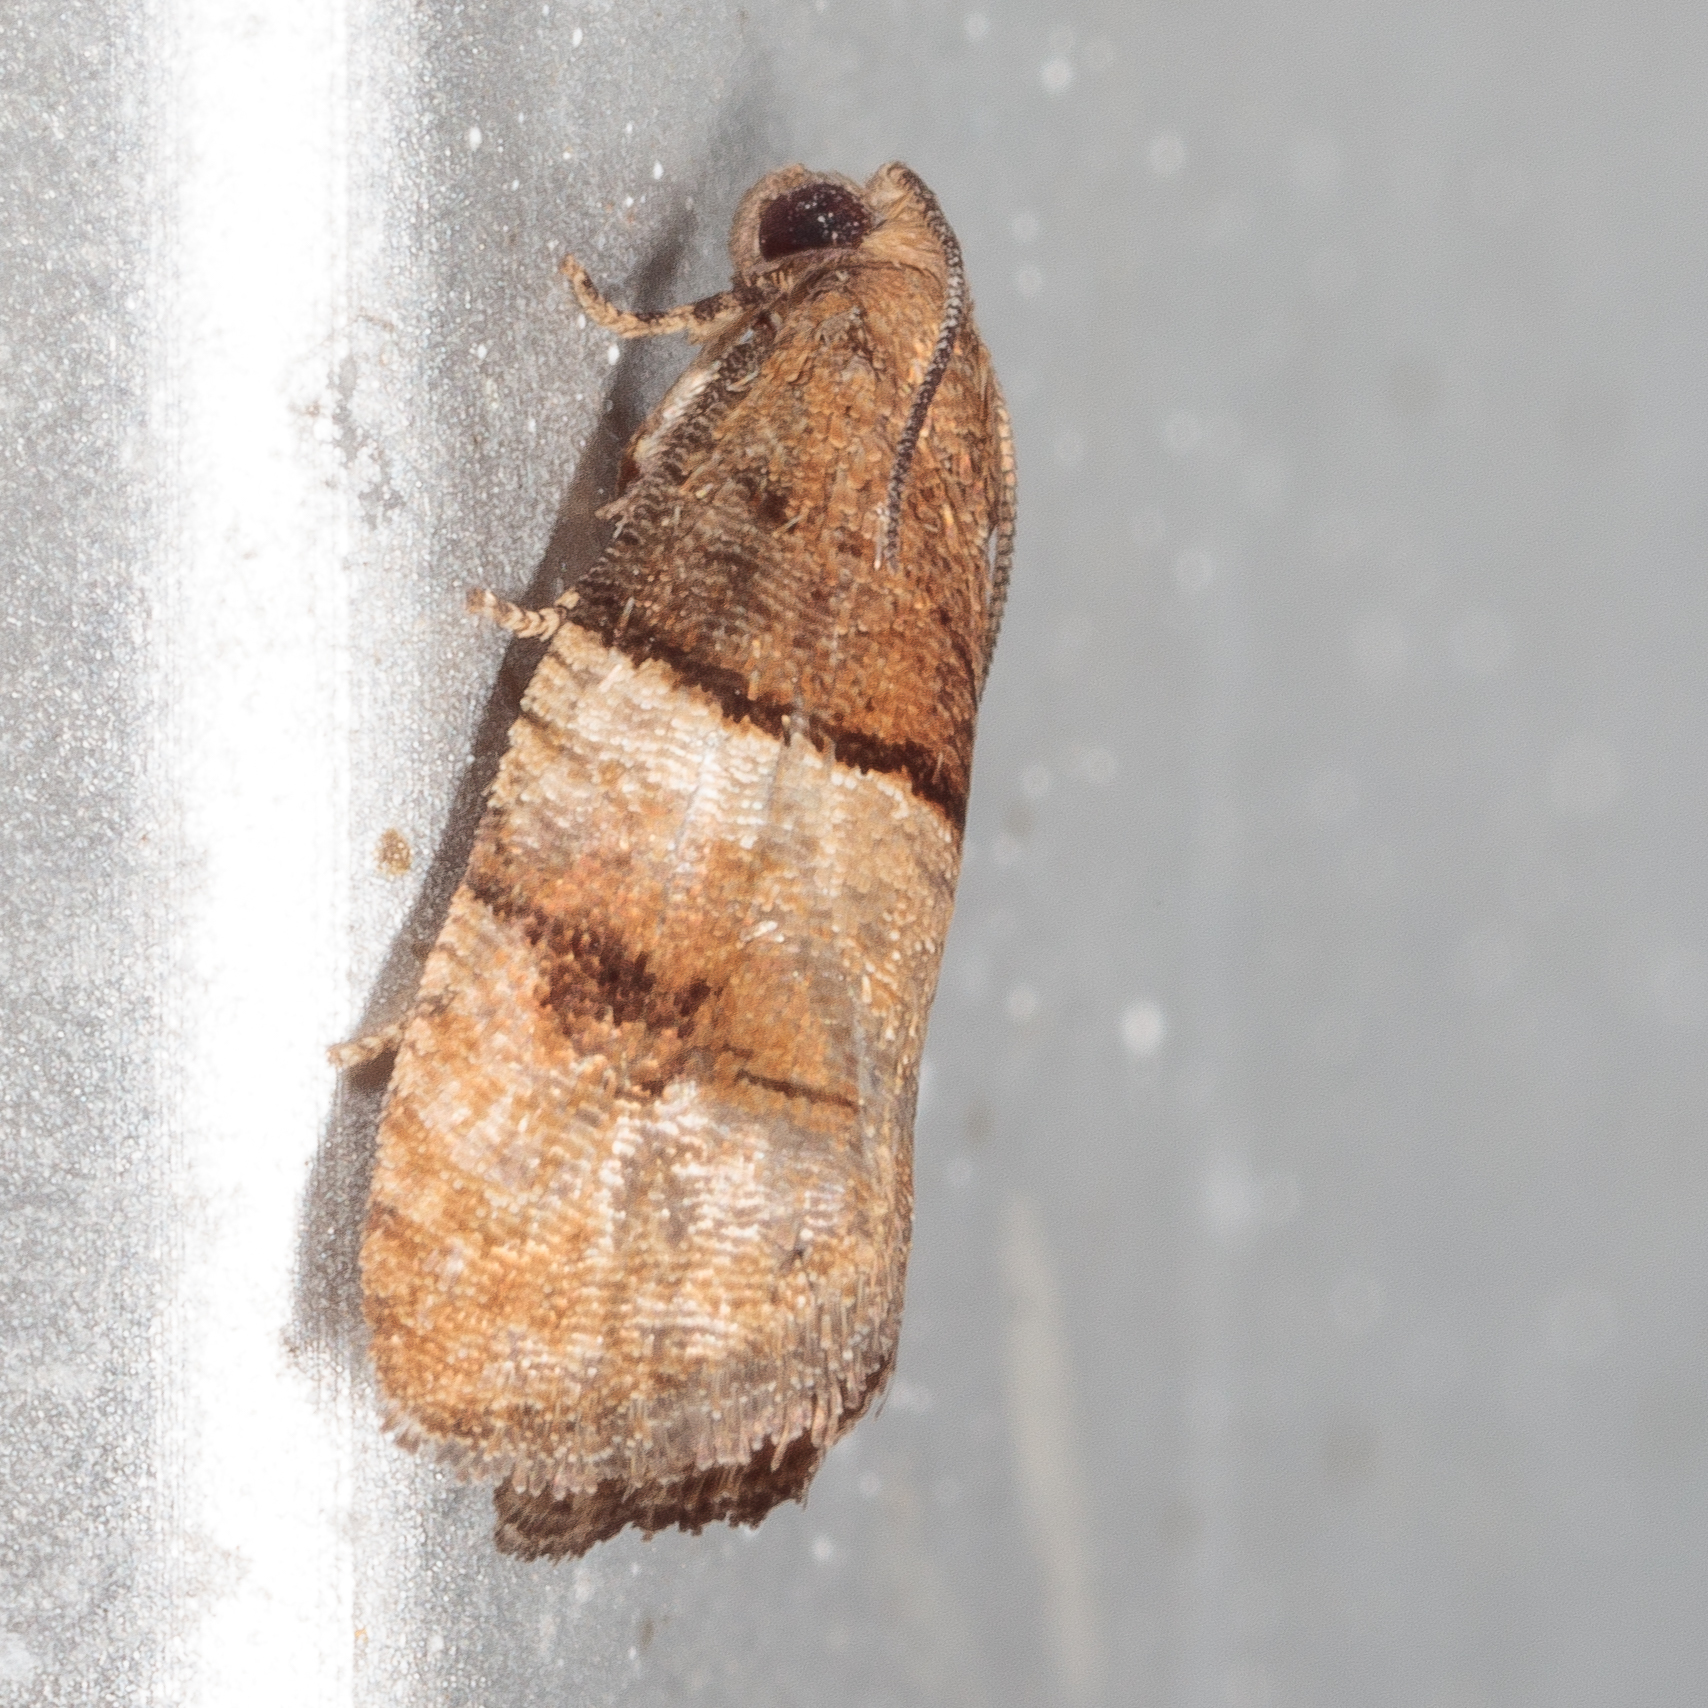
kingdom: Animalia
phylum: Arthropoda
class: Insecta
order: Lepidoptera
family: Tortricidae
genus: Larisa
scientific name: Larisa subsolana
